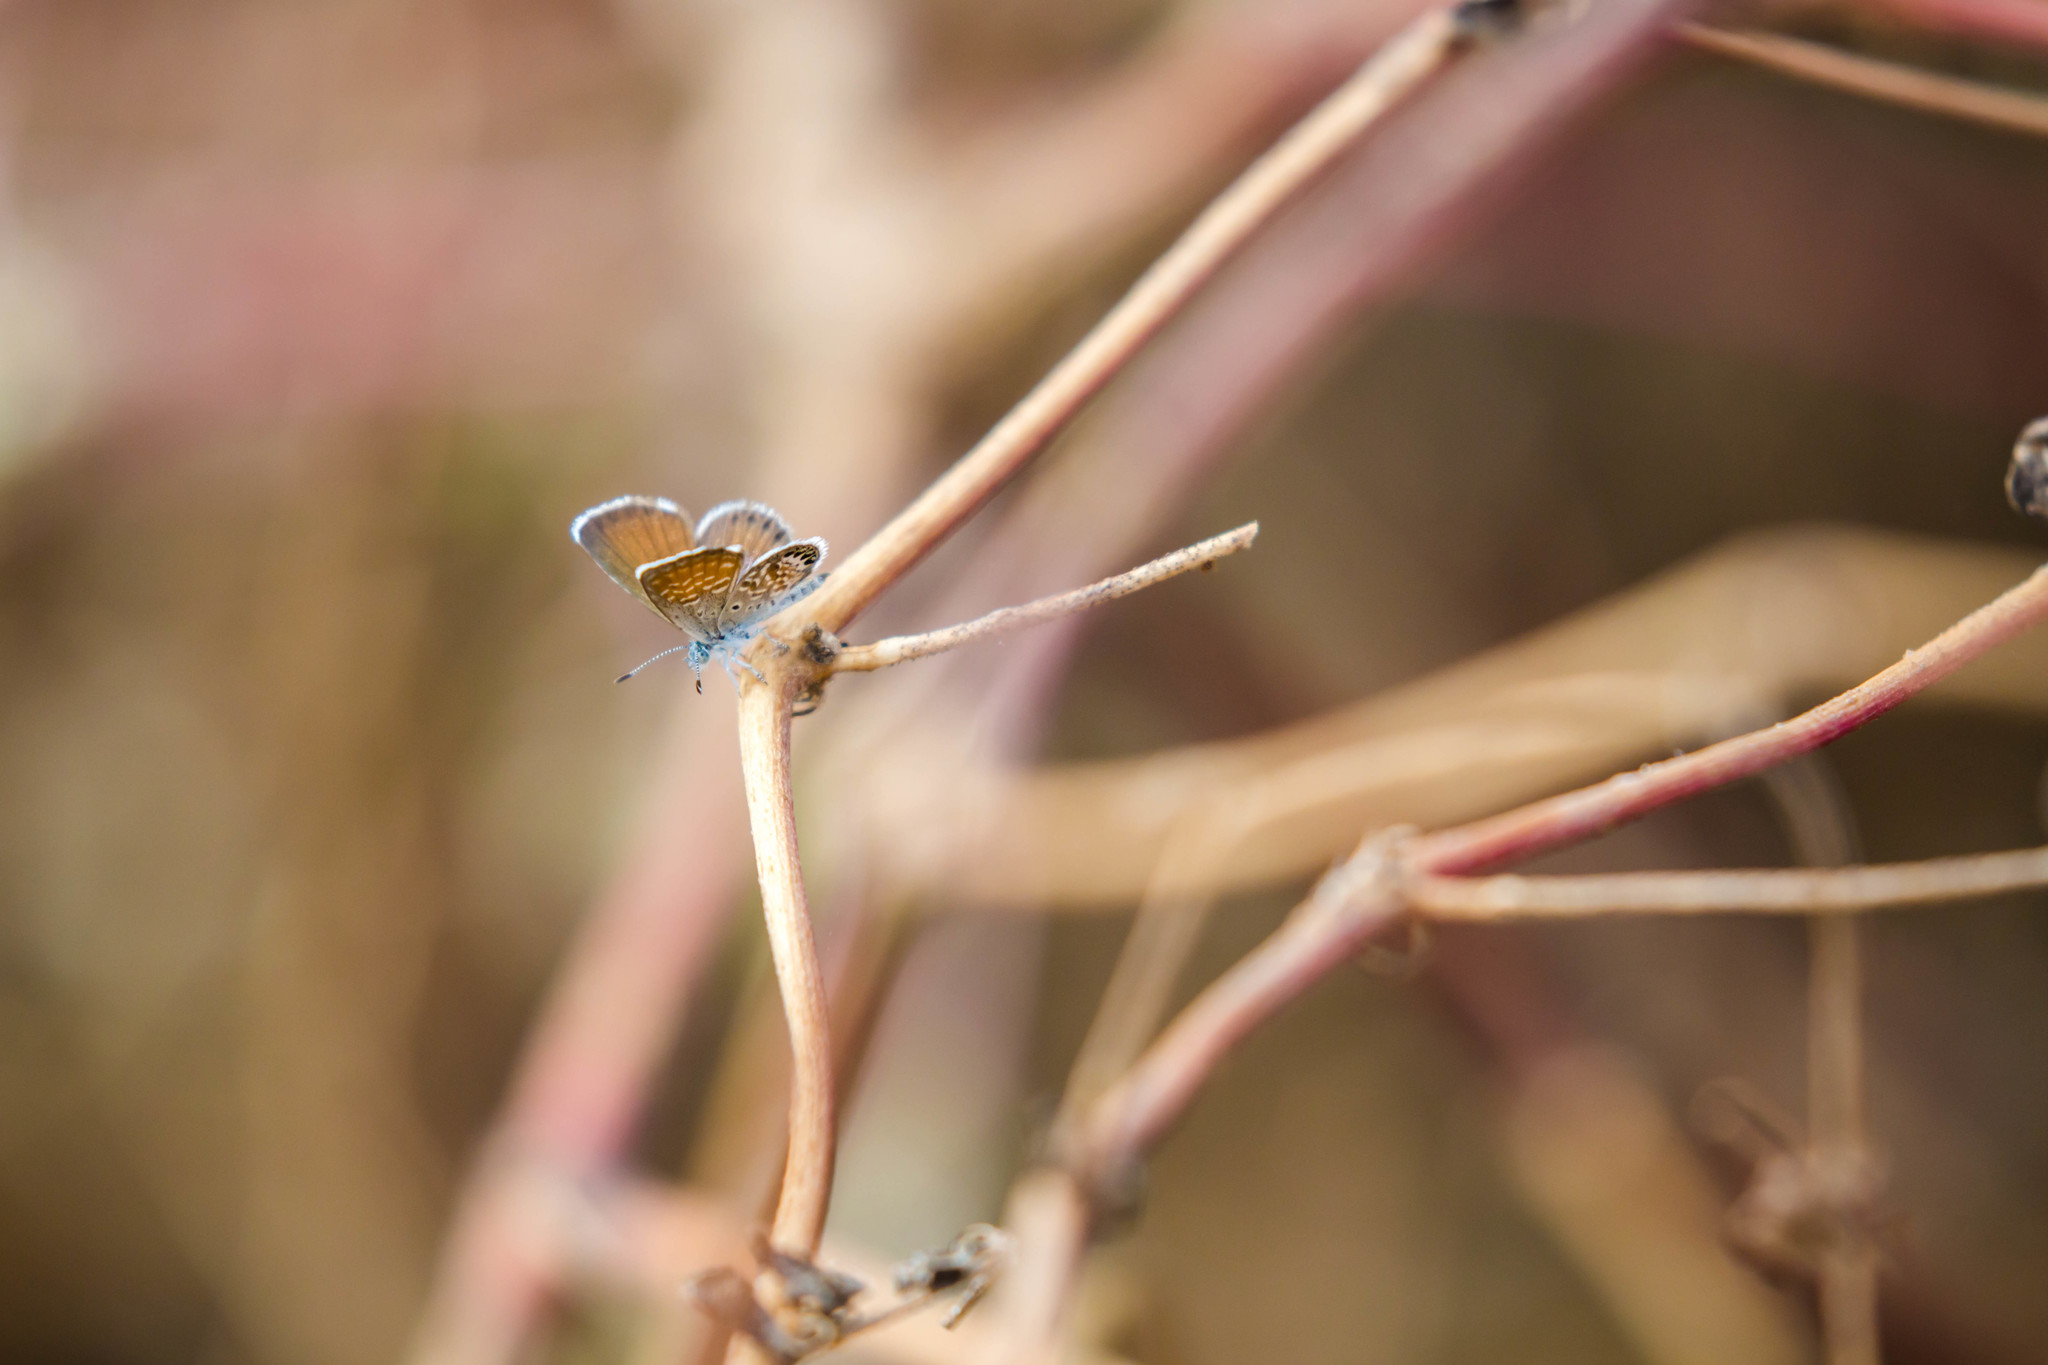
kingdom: Animalia
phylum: Arthropoda
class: Insecta
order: Lepidoptera
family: Lycaenidae
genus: Brephidium
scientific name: Brephidium exilis
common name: Pygmy blue
